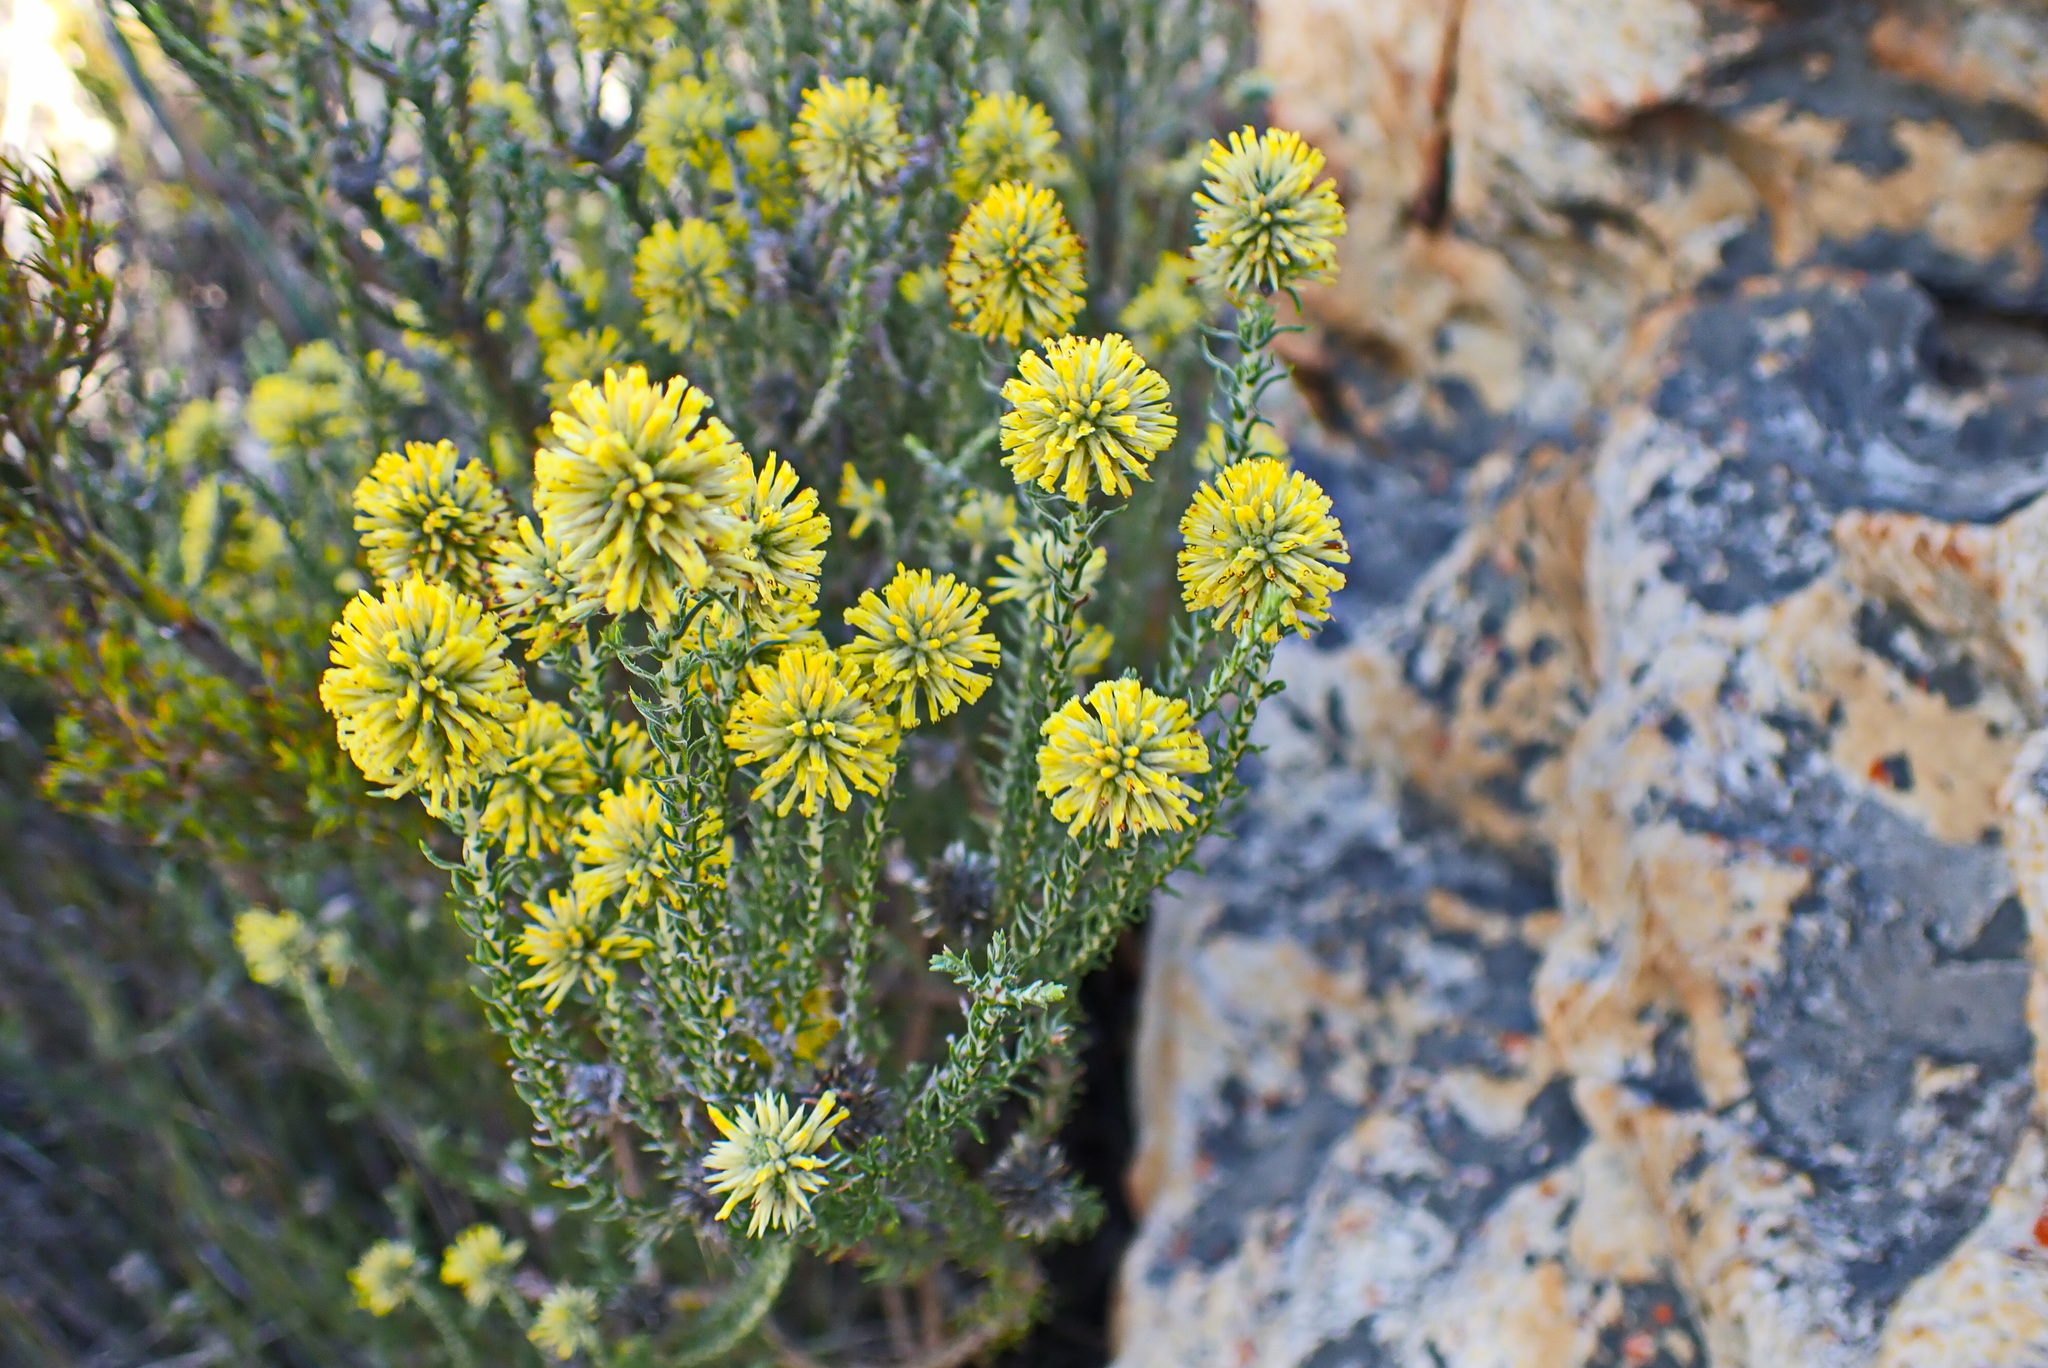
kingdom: Plantae
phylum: Tracheophyta
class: Magnoliopsida
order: Asterales
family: Asteraceae
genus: Seriphium
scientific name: Seriphium spirale
